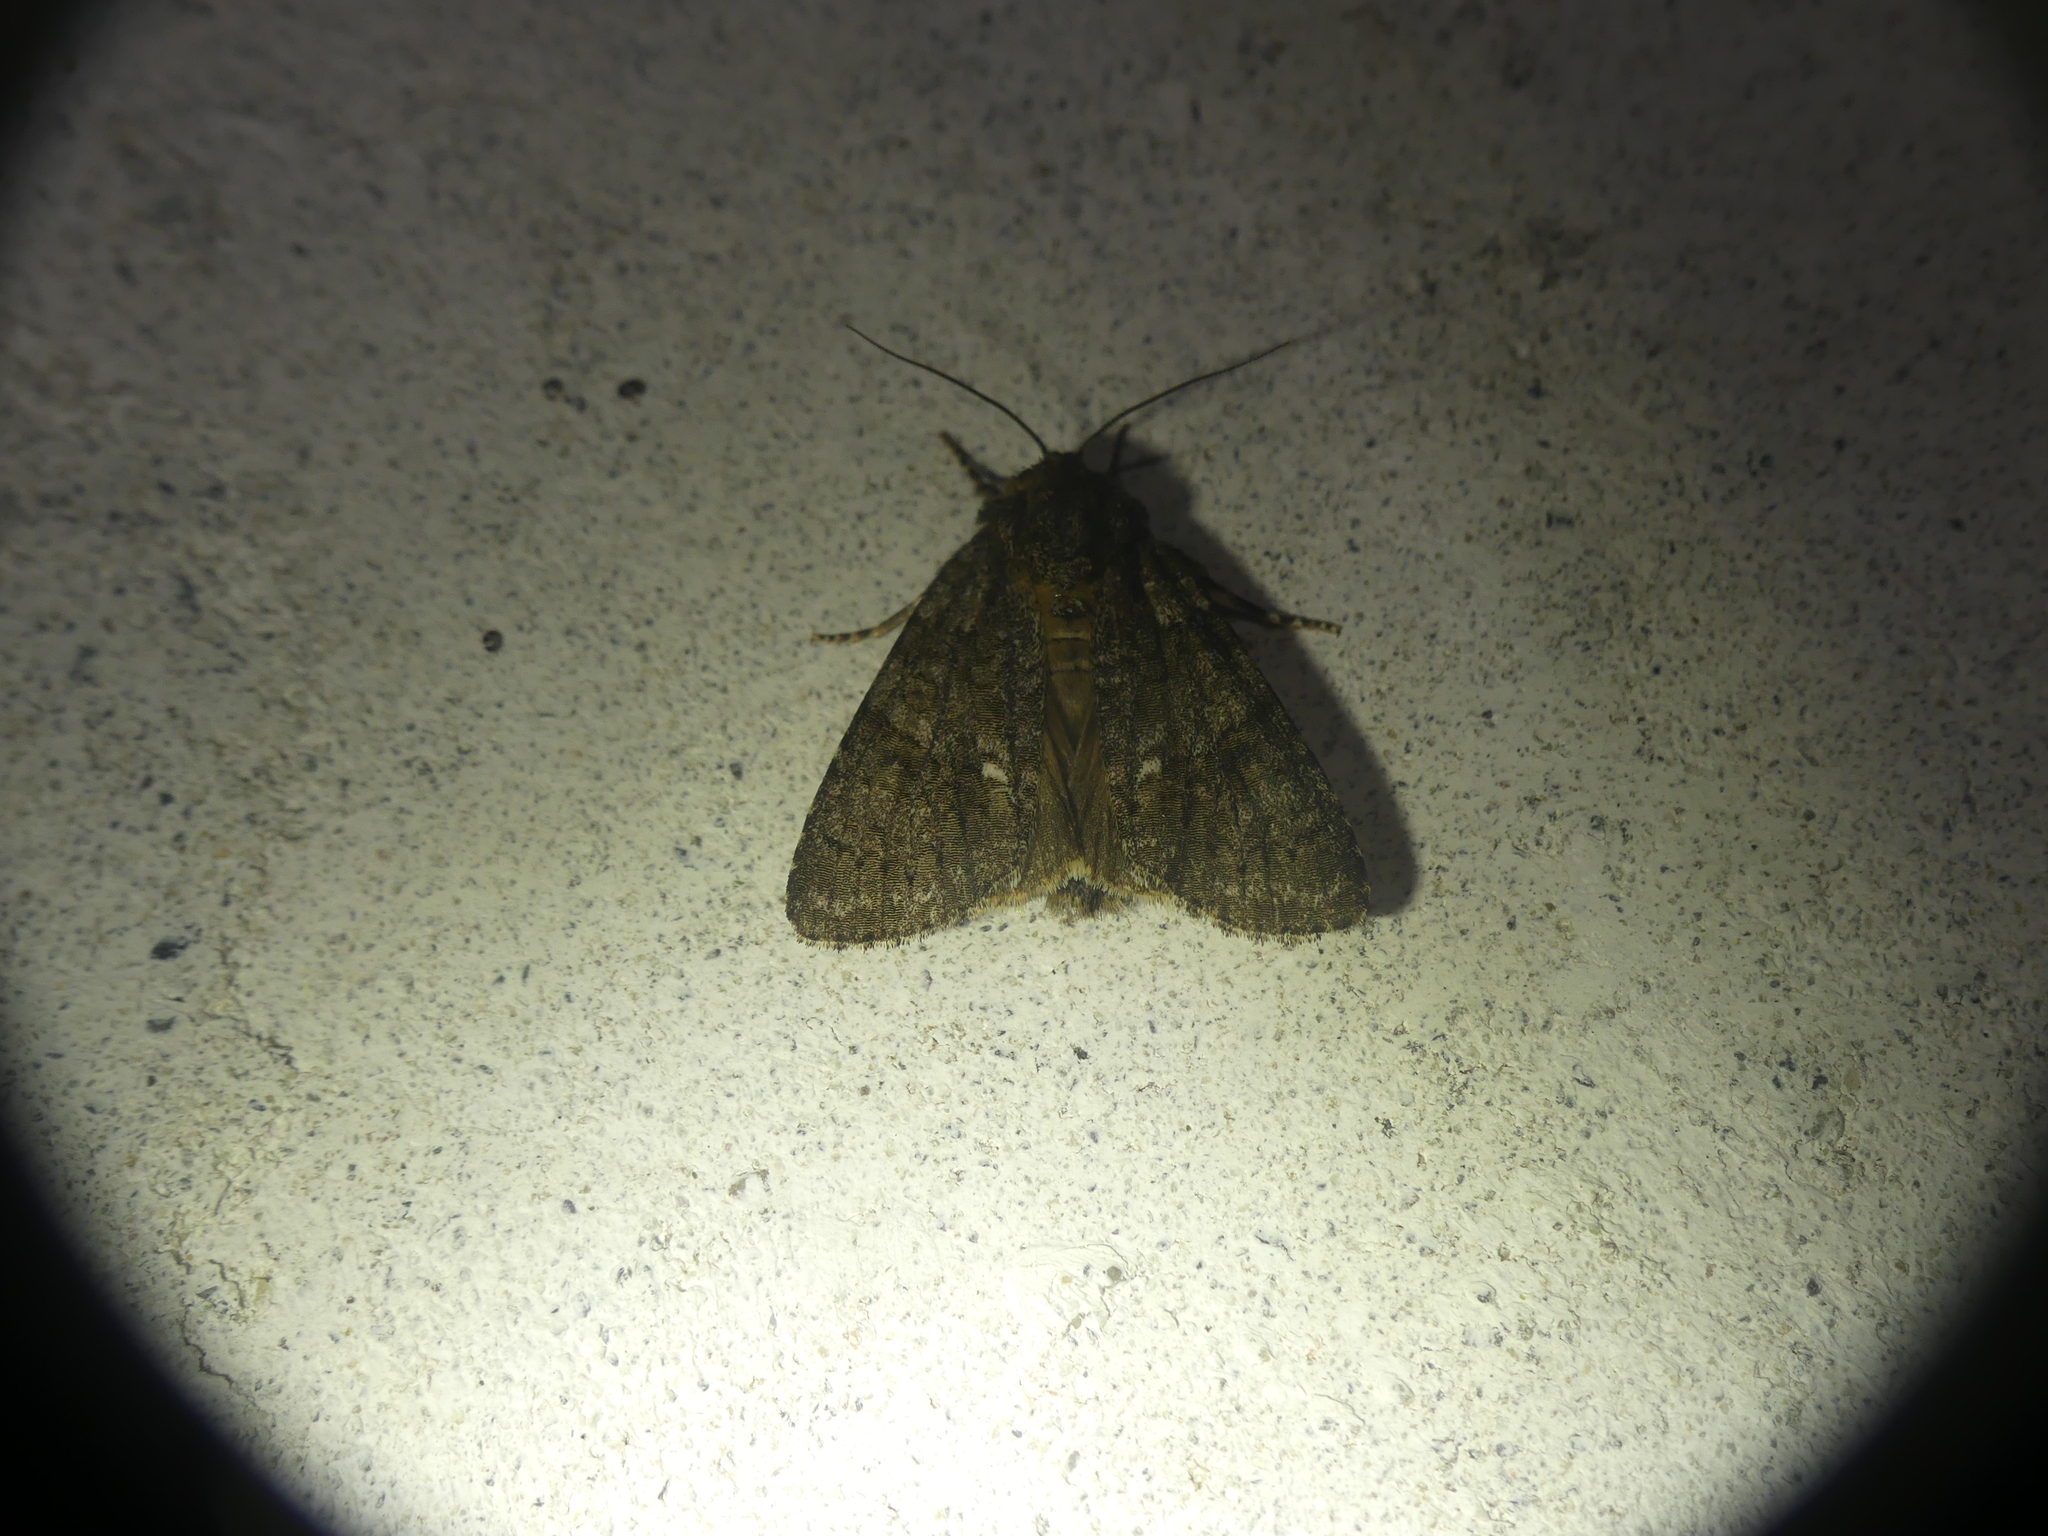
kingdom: Animalia
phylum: Arthropoda
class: Insecta
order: Lepidoptera
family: Noctuidae
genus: Acronicta
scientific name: Acronicta rumicis
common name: Knot grass
